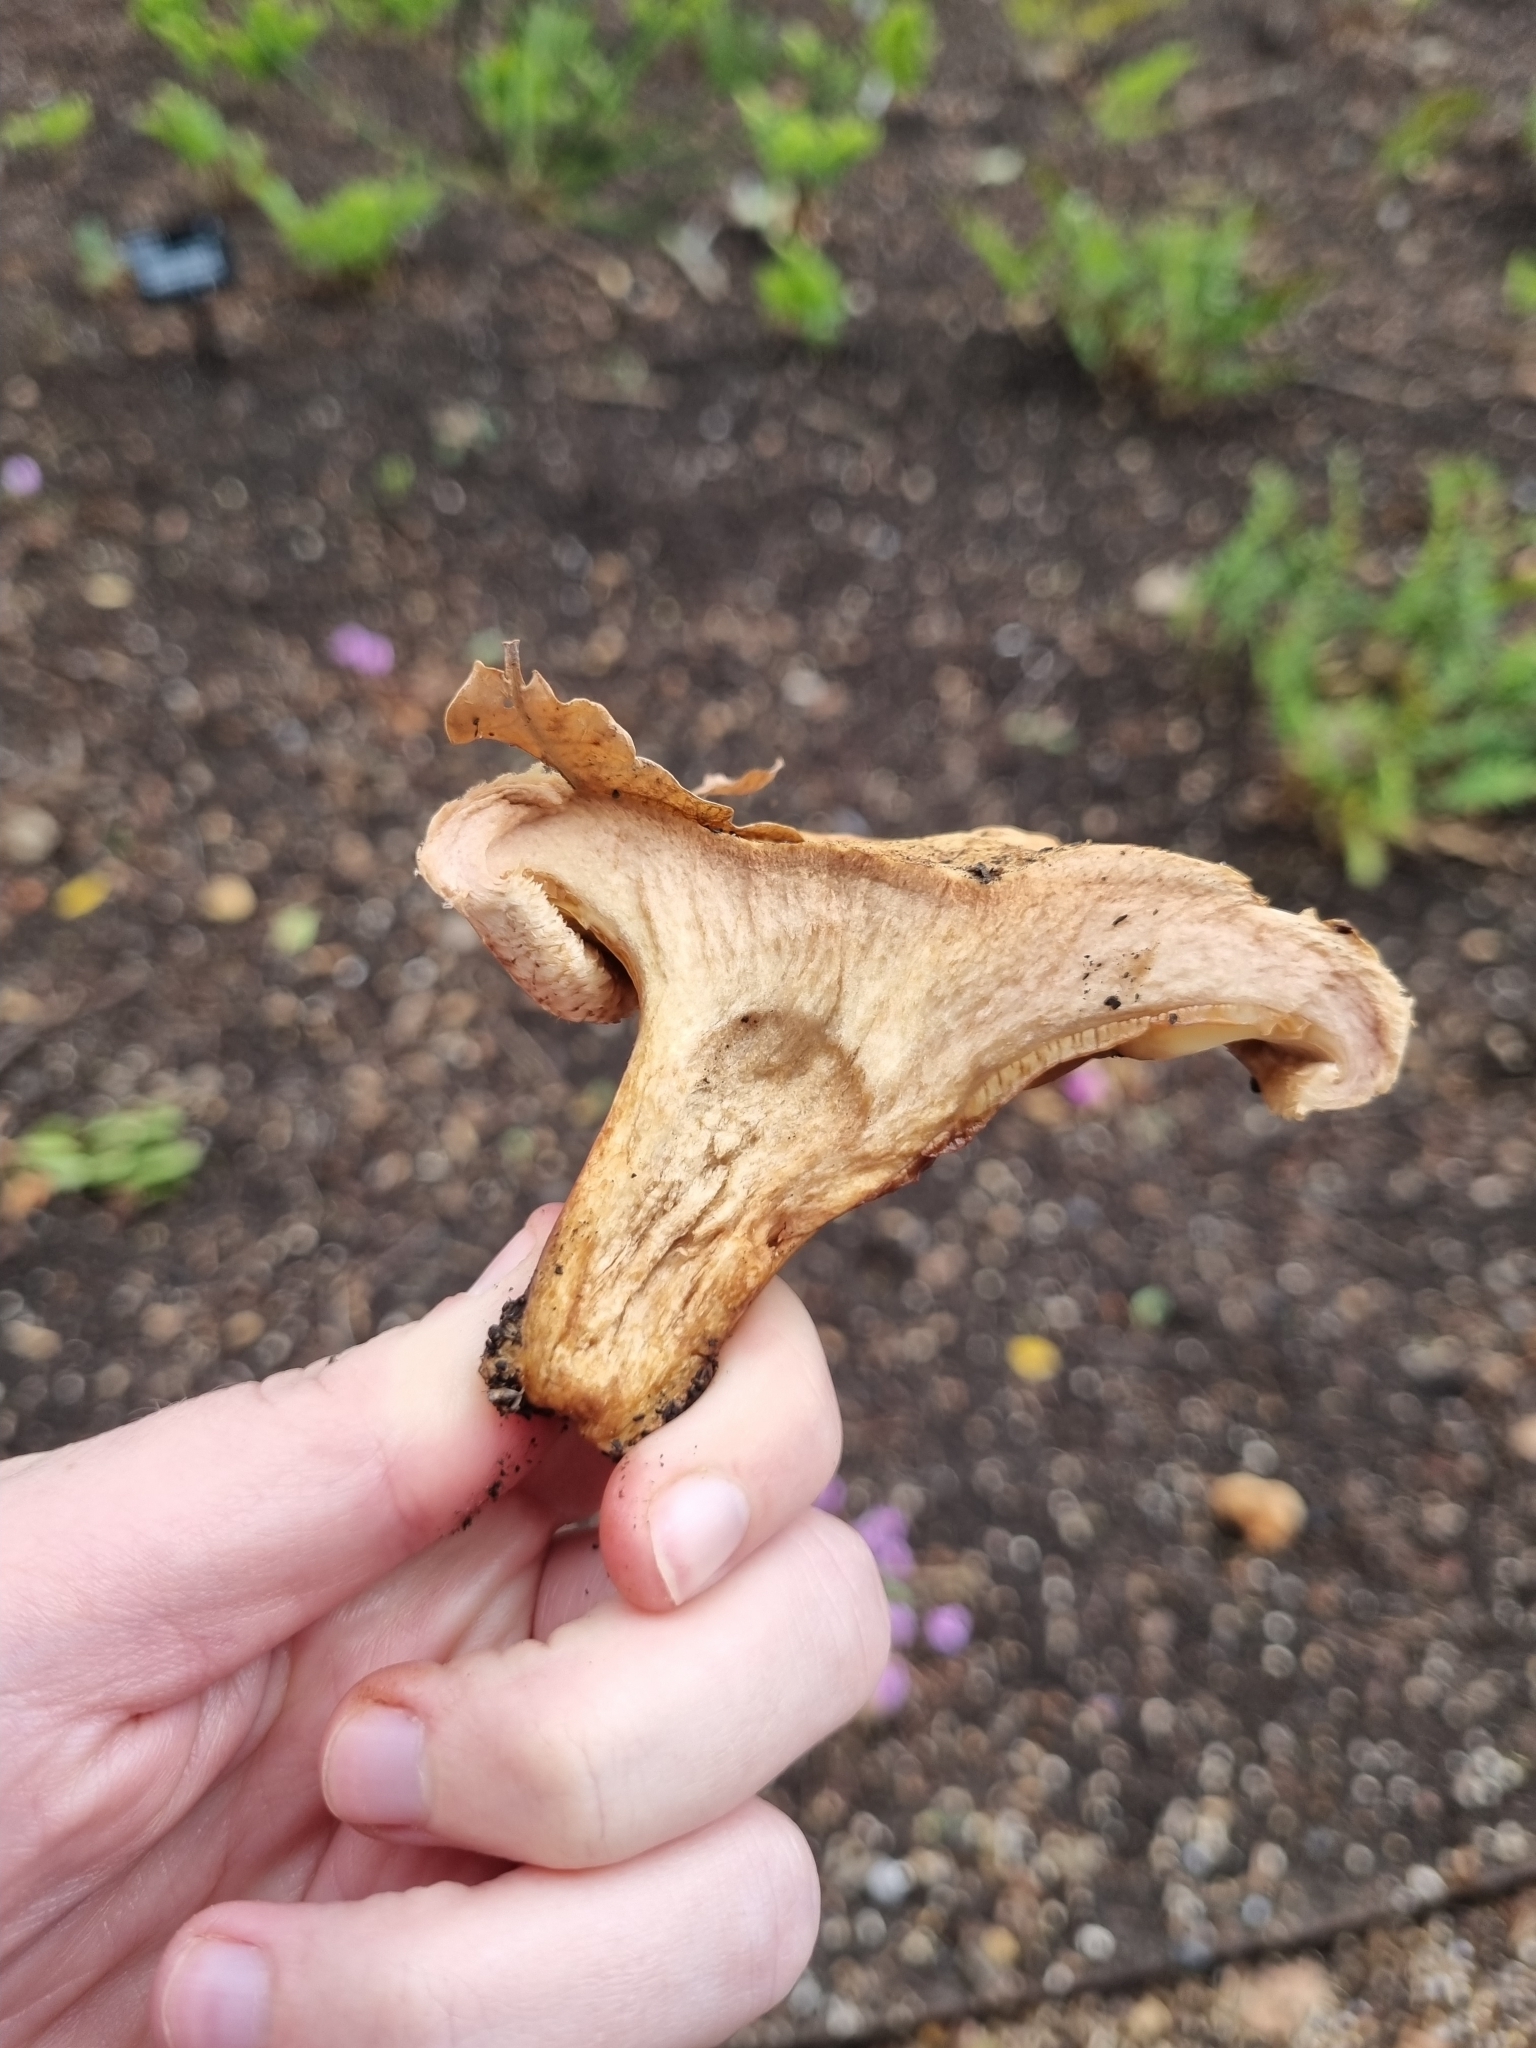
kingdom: Fungi
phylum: Basidiomycota
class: Agaricomycetes
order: Boletales
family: Paxillaceae
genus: Paxillus
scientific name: Paxillus involutus
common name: Brown roll rim
